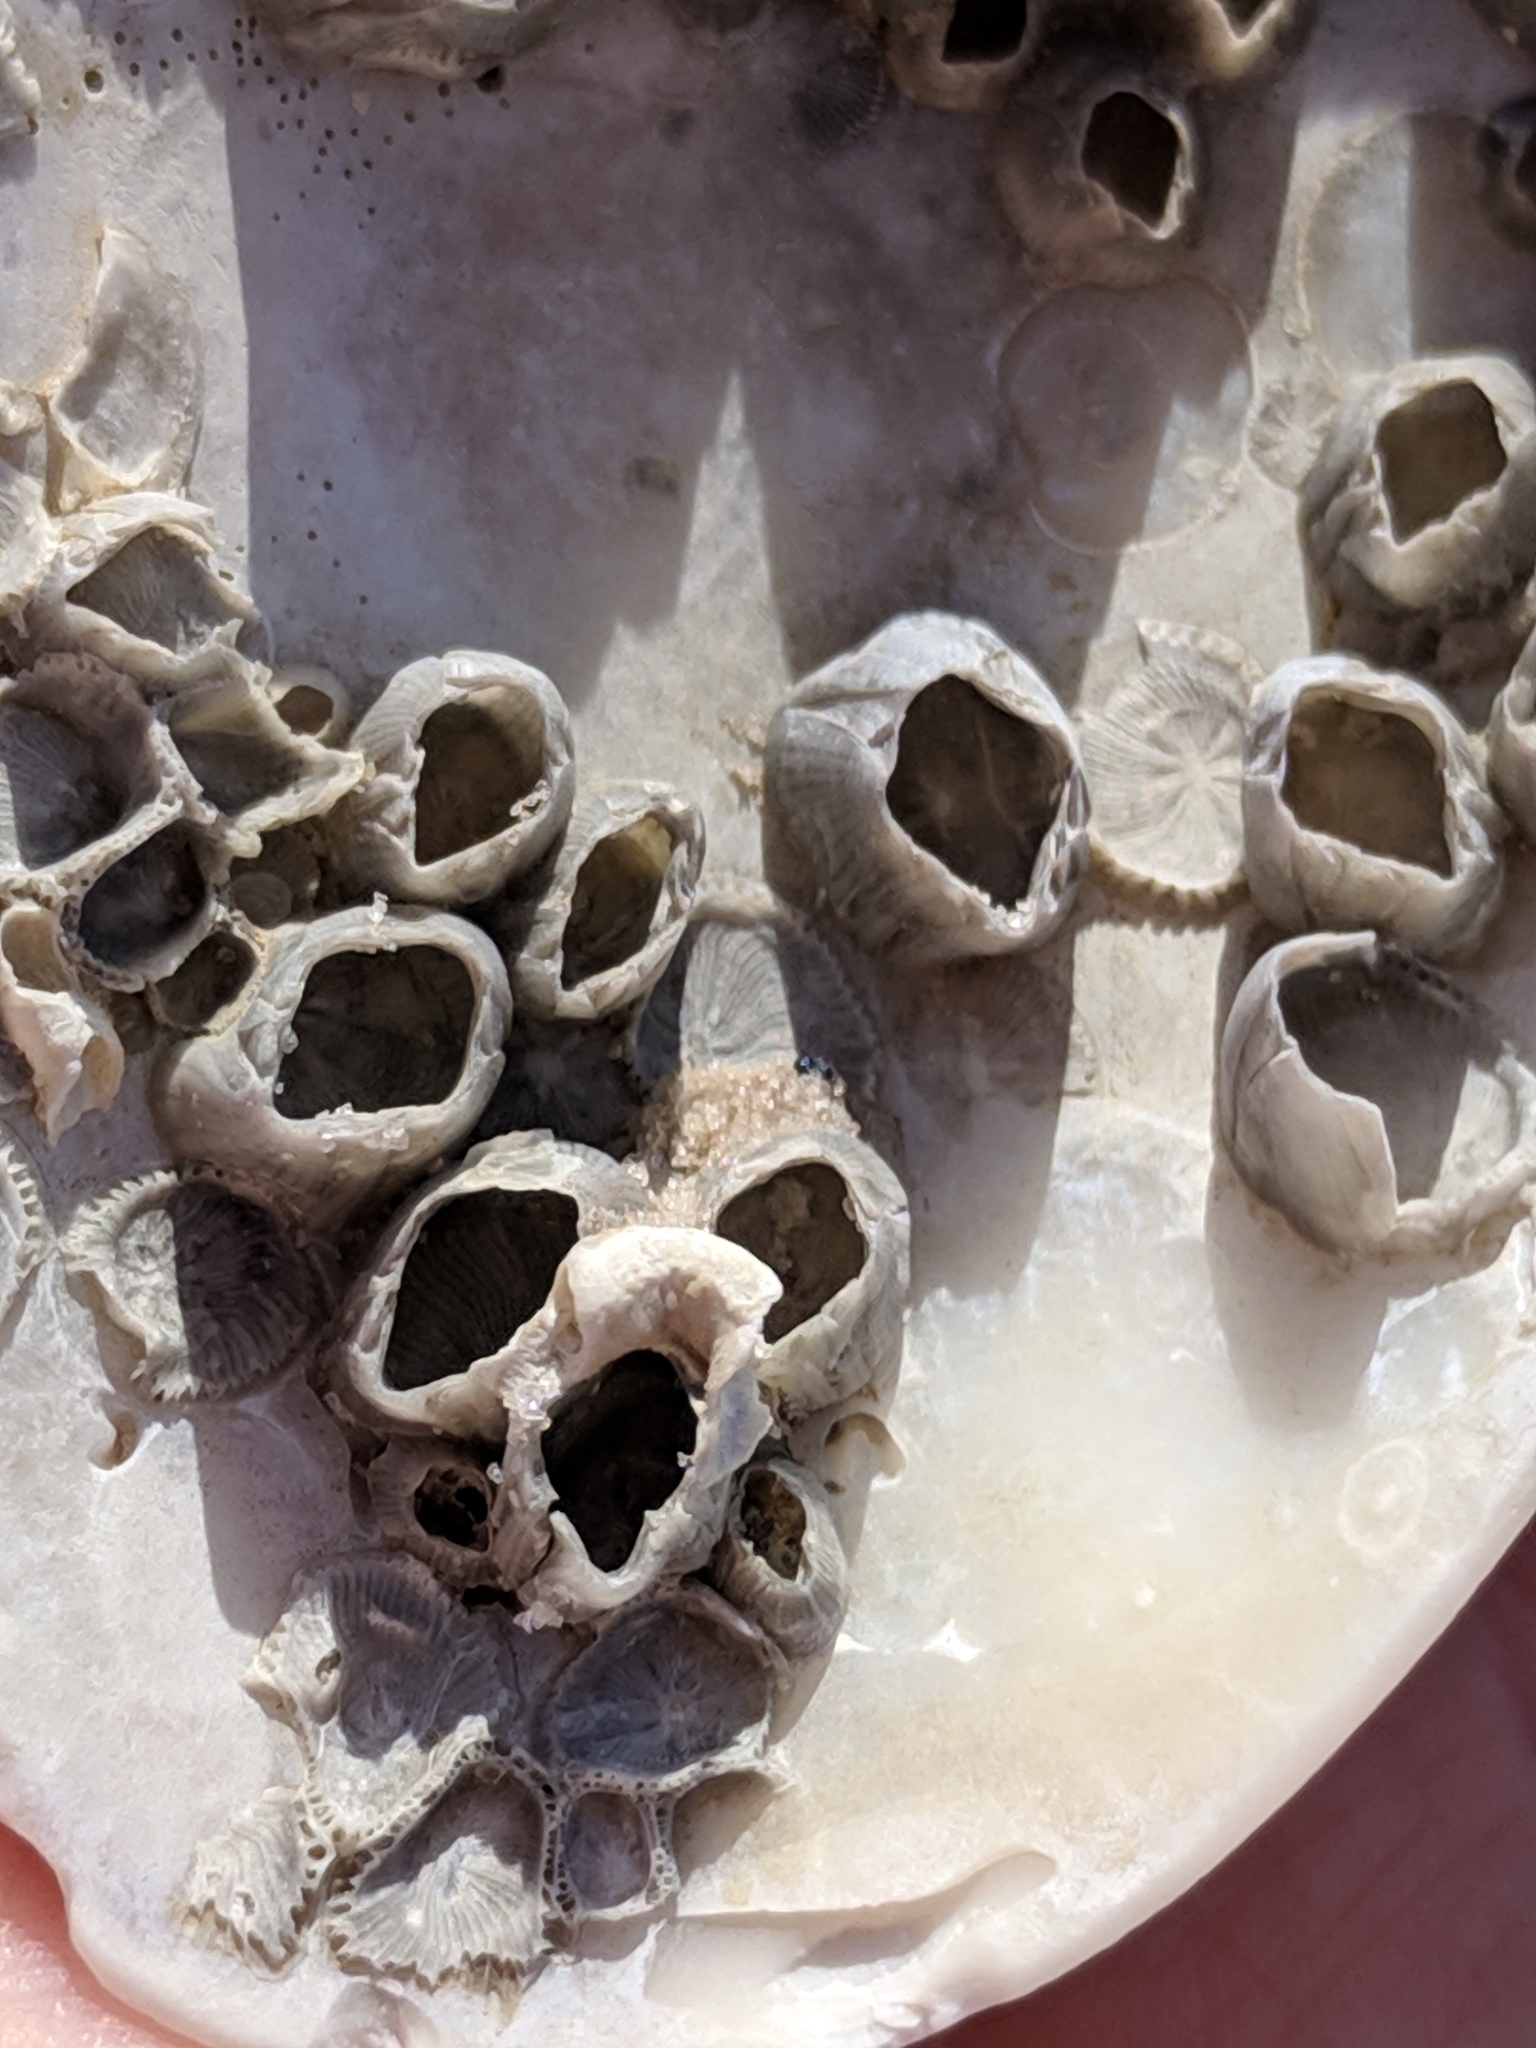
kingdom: Animalia
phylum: Arthropoda
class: Maxillopoda
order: Sessilia
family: Balanidae
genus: Amphibalanus
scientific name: Amphibalanus venustus
